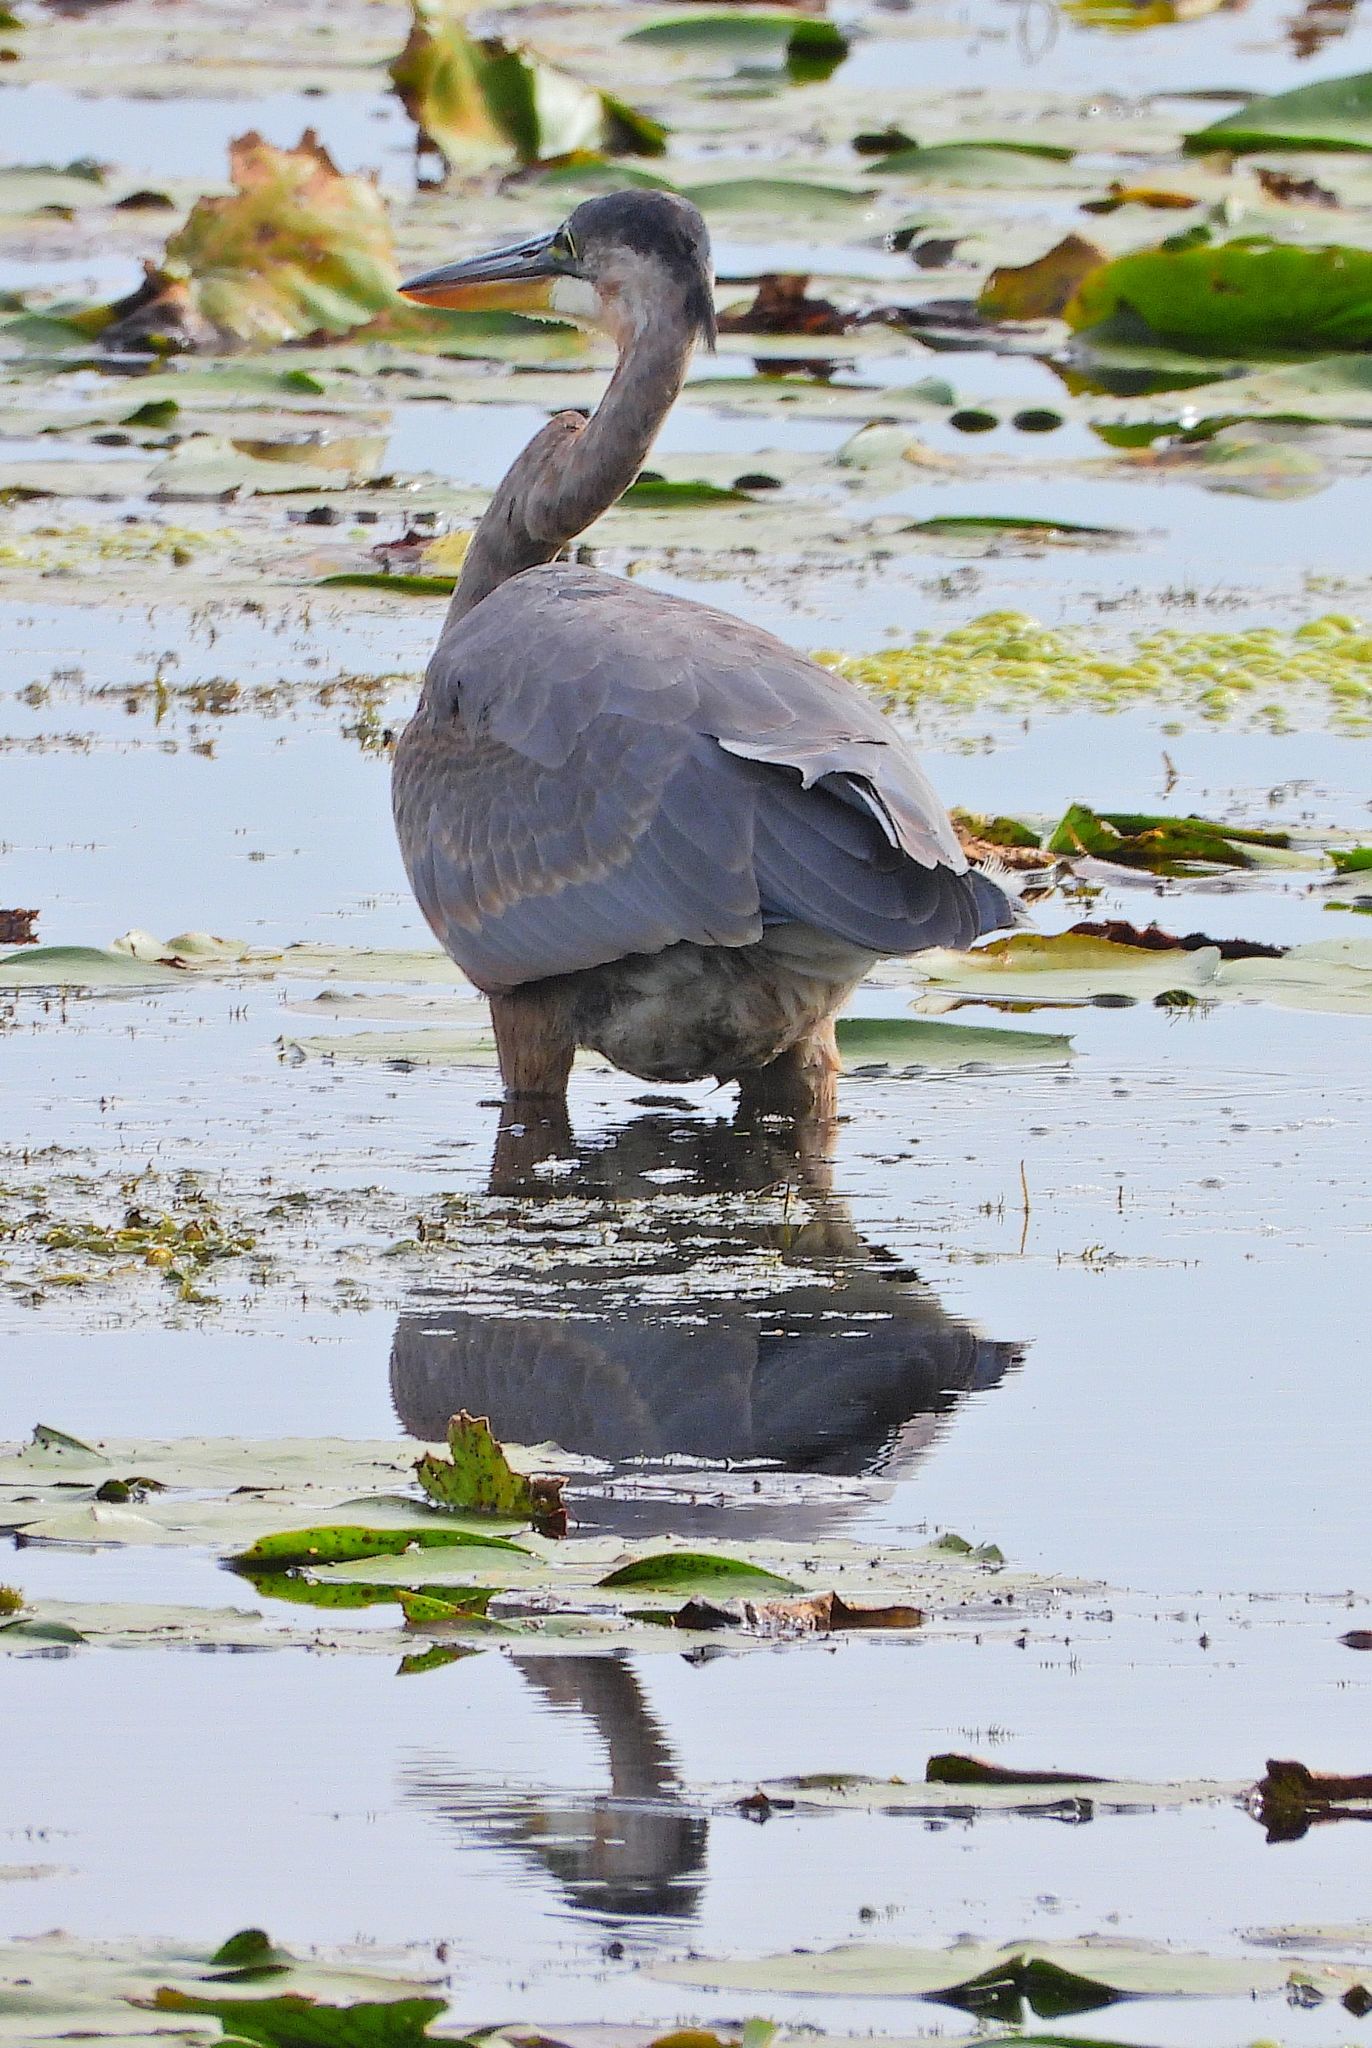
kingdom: Animalia
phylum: Chordata
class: Aves
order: Pelecaniformes
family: Ardeidae
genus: Ardea
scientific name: Ardea herodias
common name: Great blue heron
